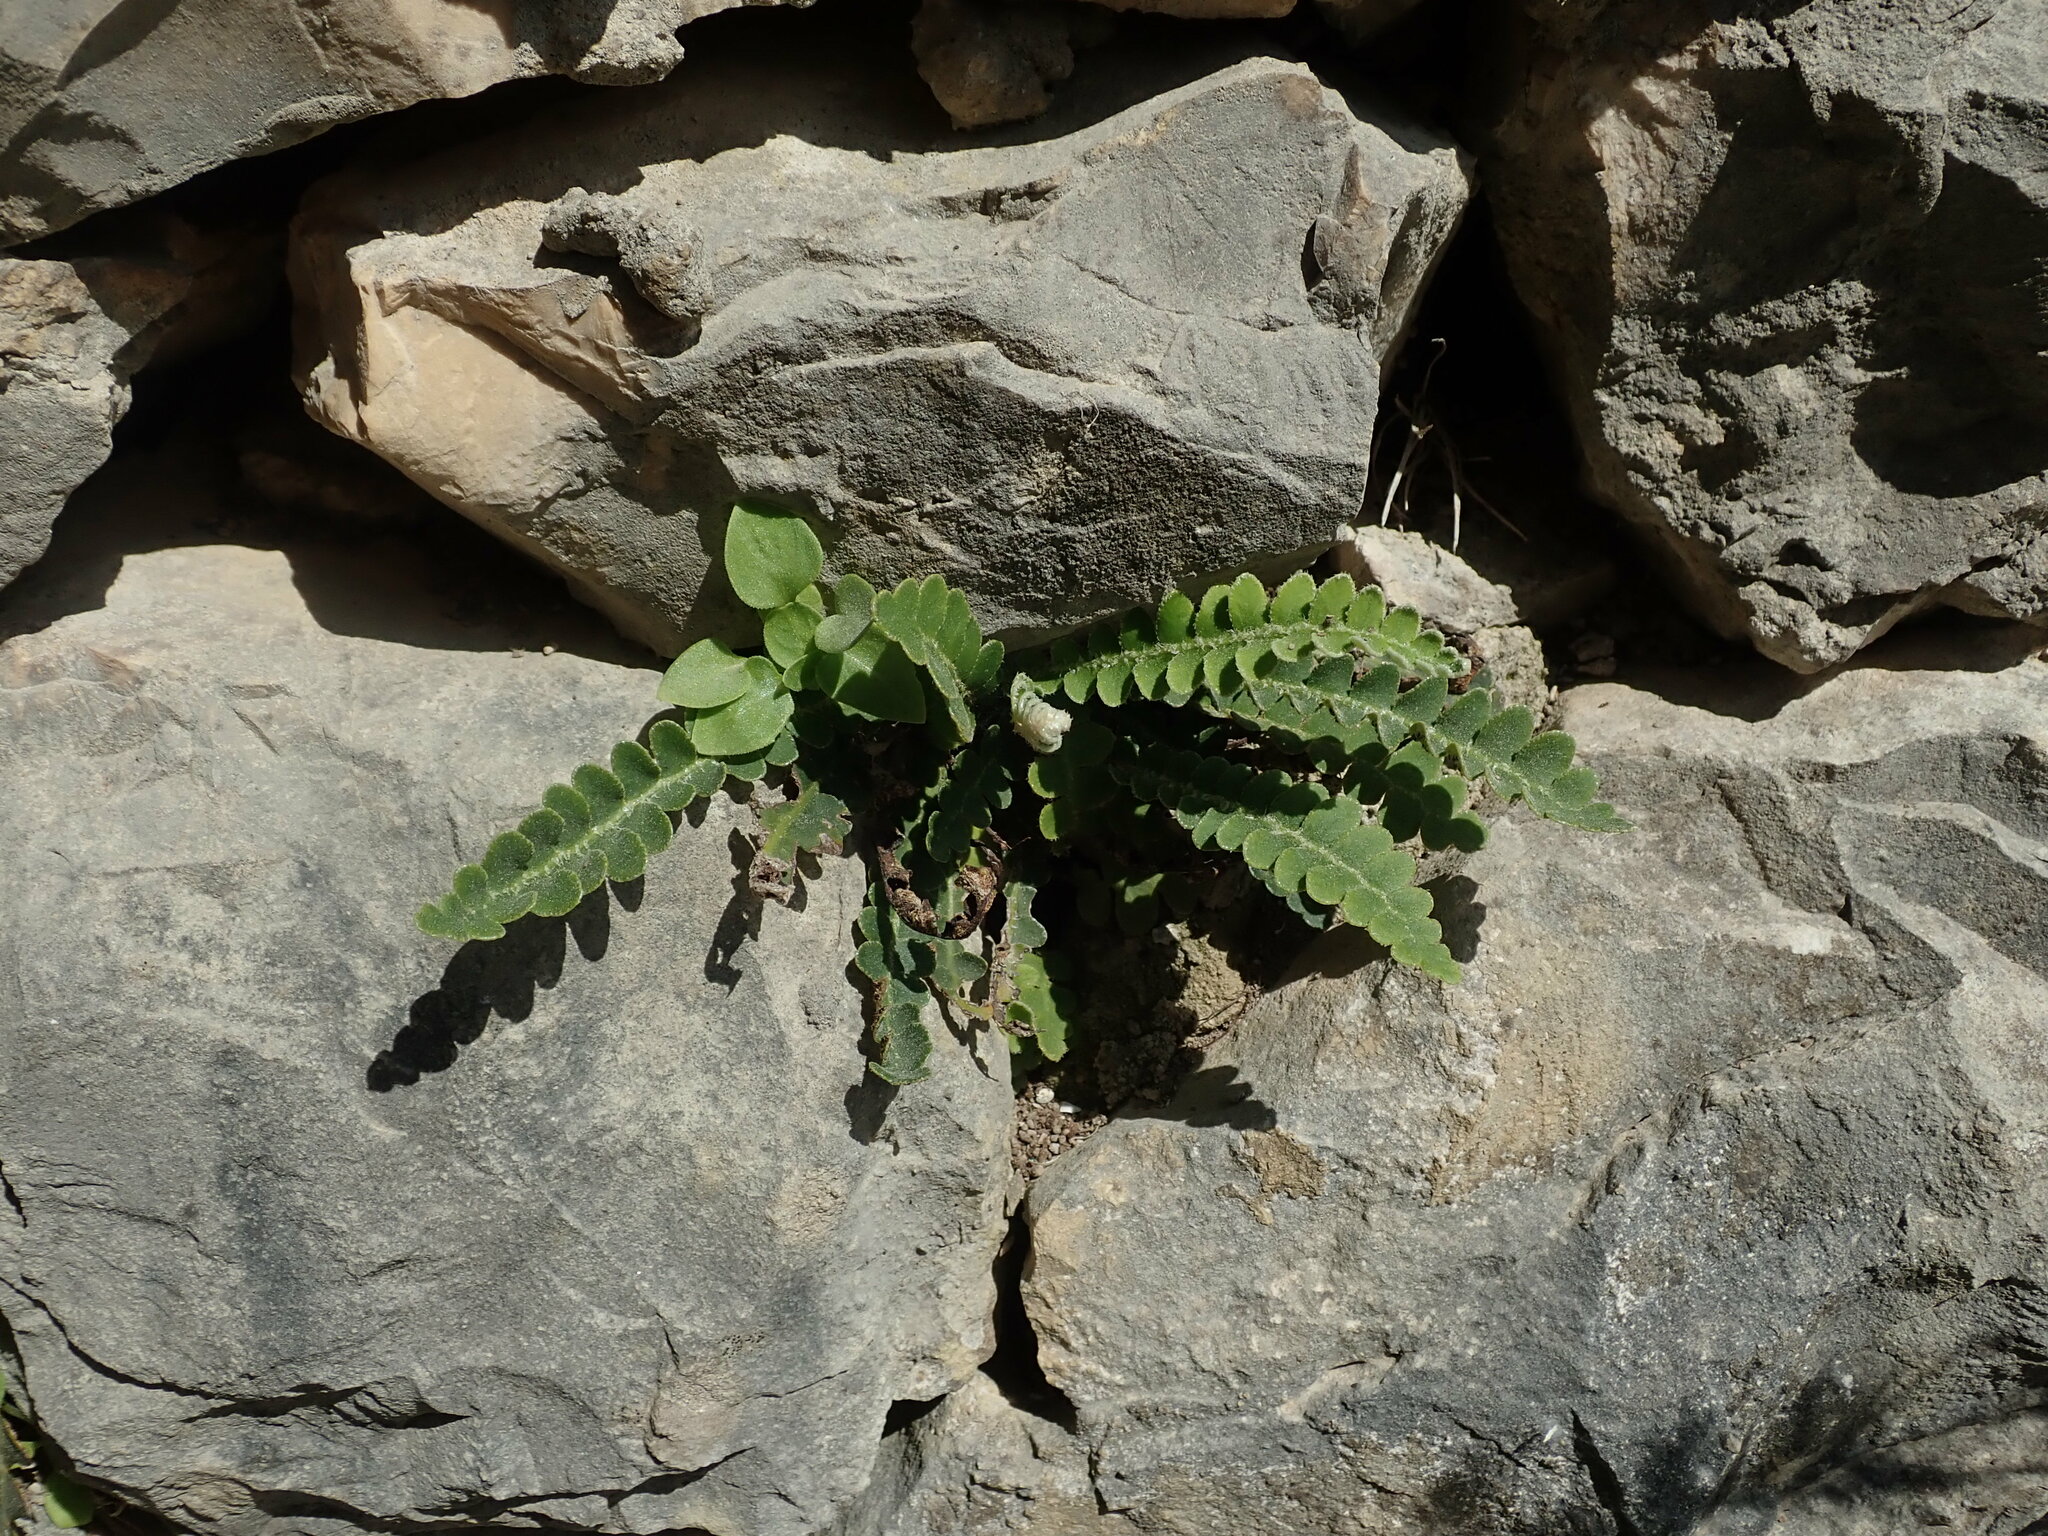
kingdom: Plantae
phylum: Tracheophyta
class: Polypodiopsida
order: Polypodiales
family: Aspleniaceae
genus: Asplenium
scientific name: Asplenium ceterach
